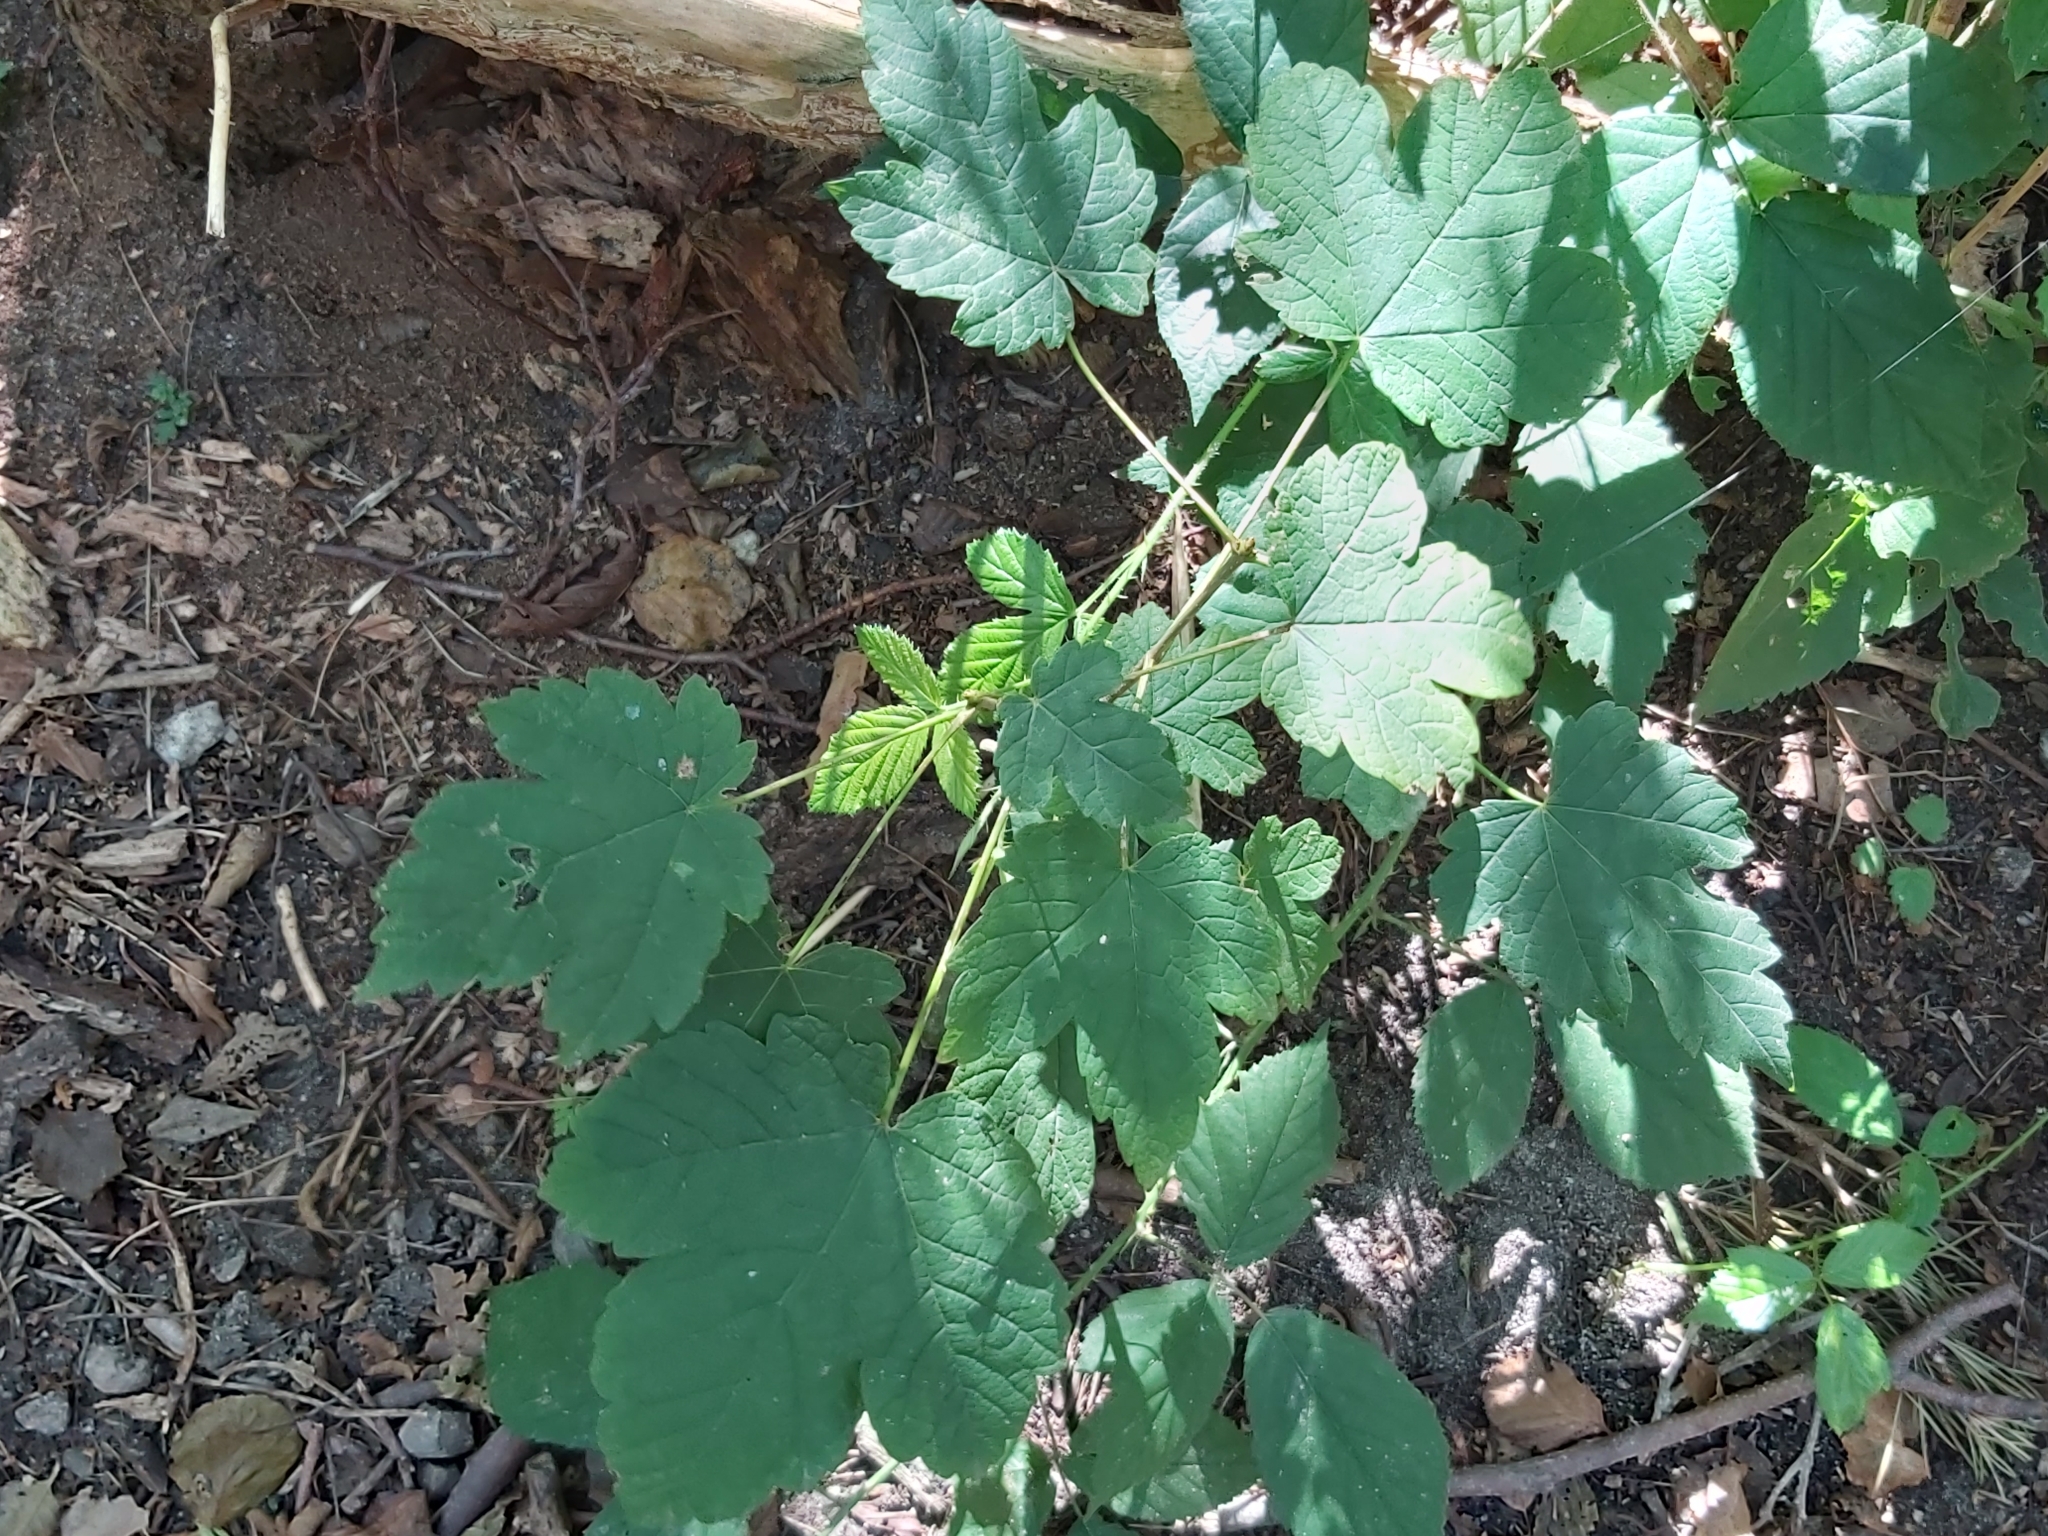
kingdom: Plantae
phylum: Tracheophyta
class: Magnoliopsida
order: Sapindales
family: Sapindaceae
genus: Acer
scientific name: Acer pseudoplatanus
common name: Sycamore
